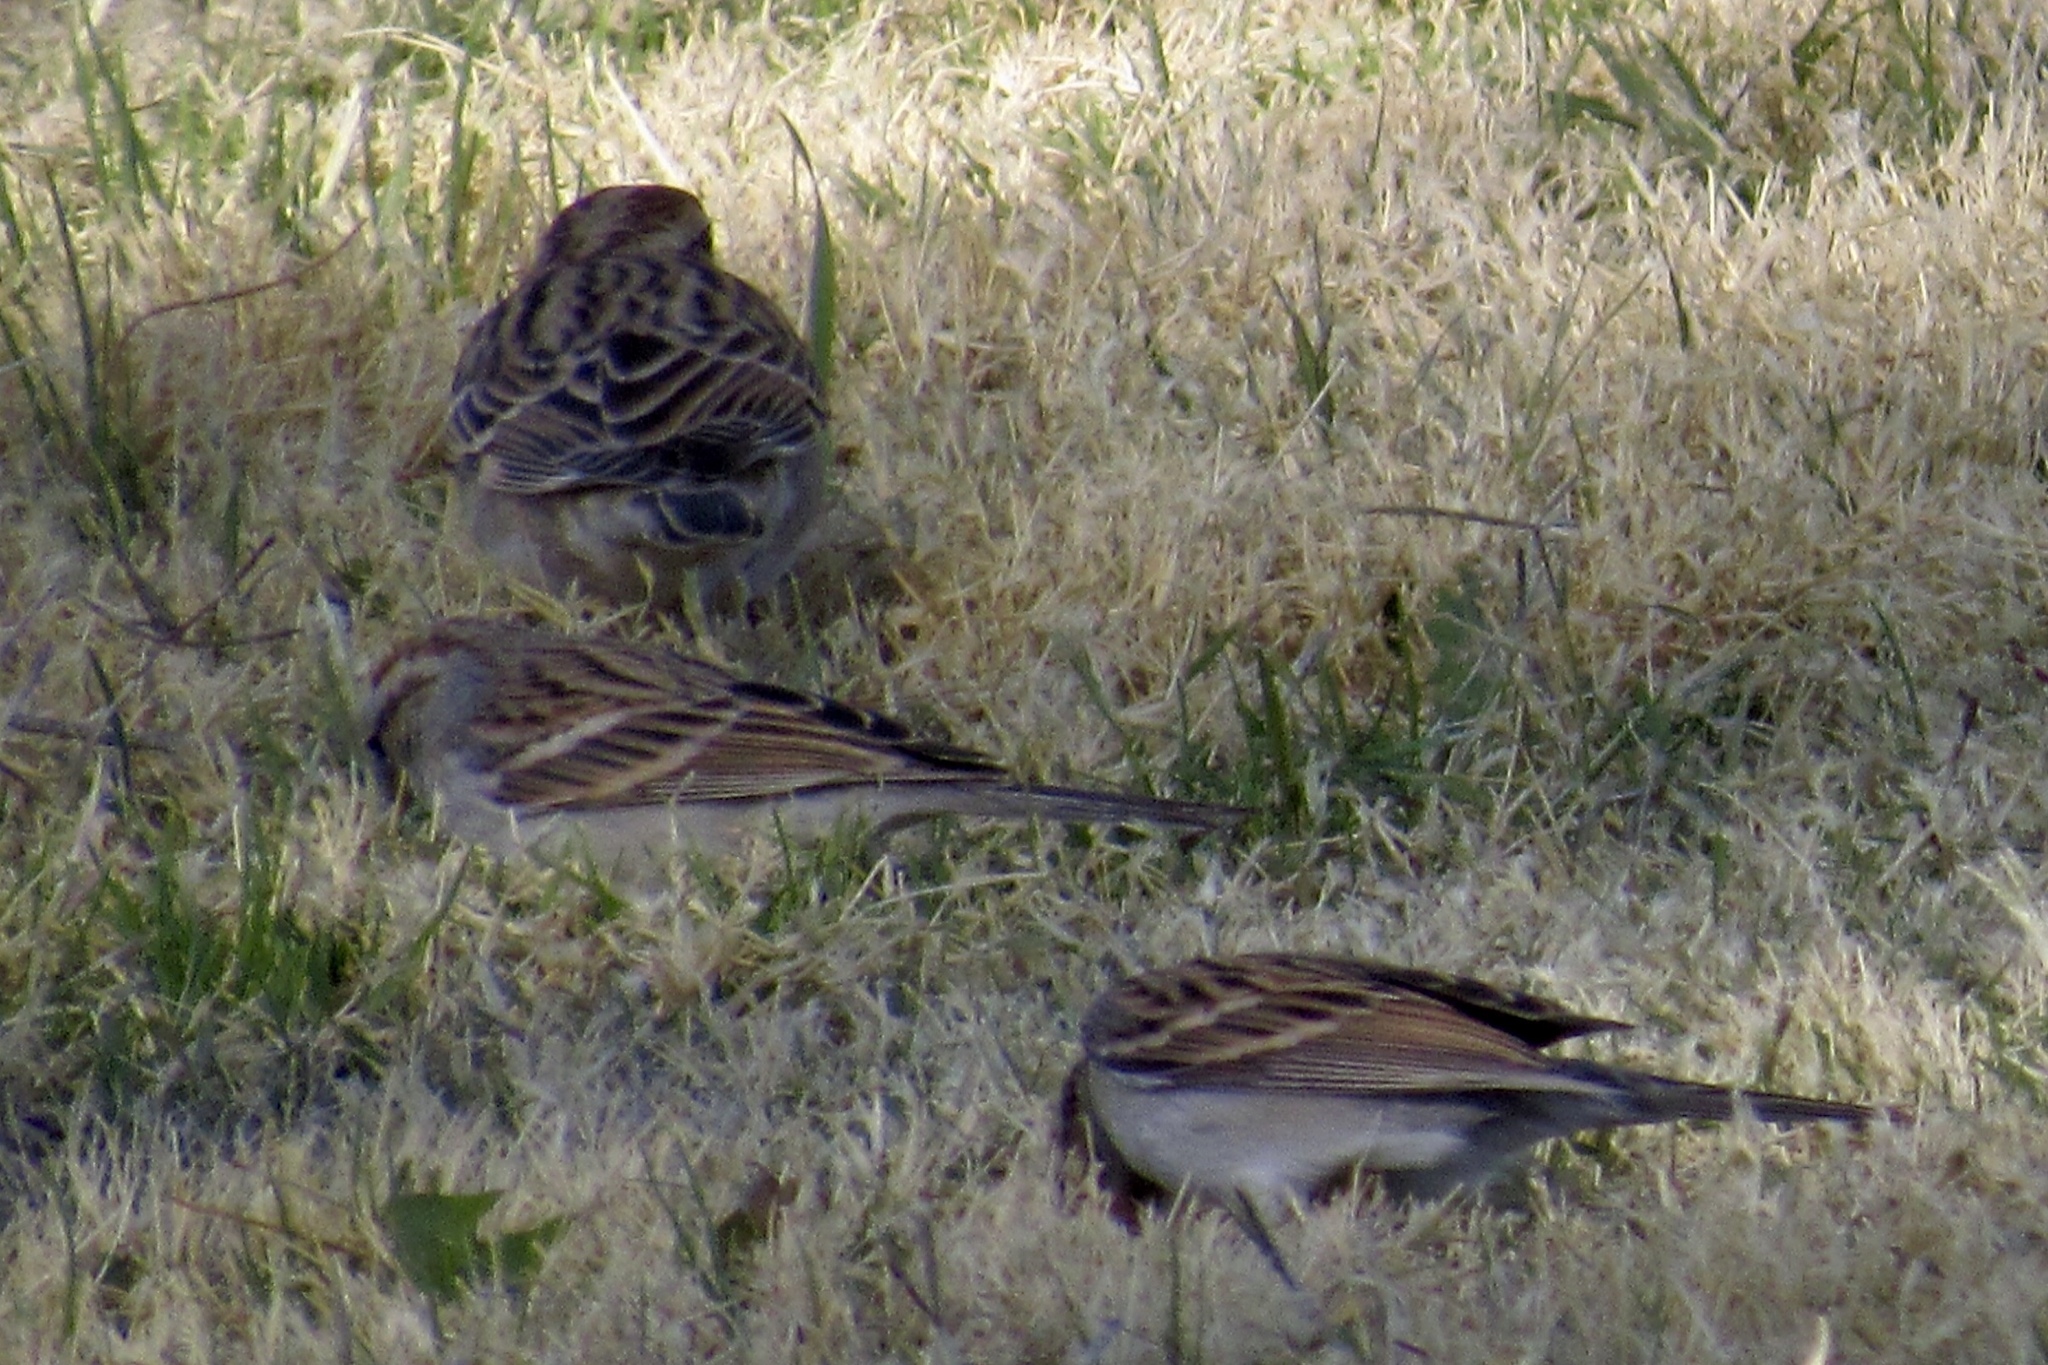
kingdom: Animalia
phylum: Chordata
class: Aves
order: Passeriformes
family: Passerellidae
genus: Chondestes
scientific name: Chondestes grammacus
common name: Lark sparrow
